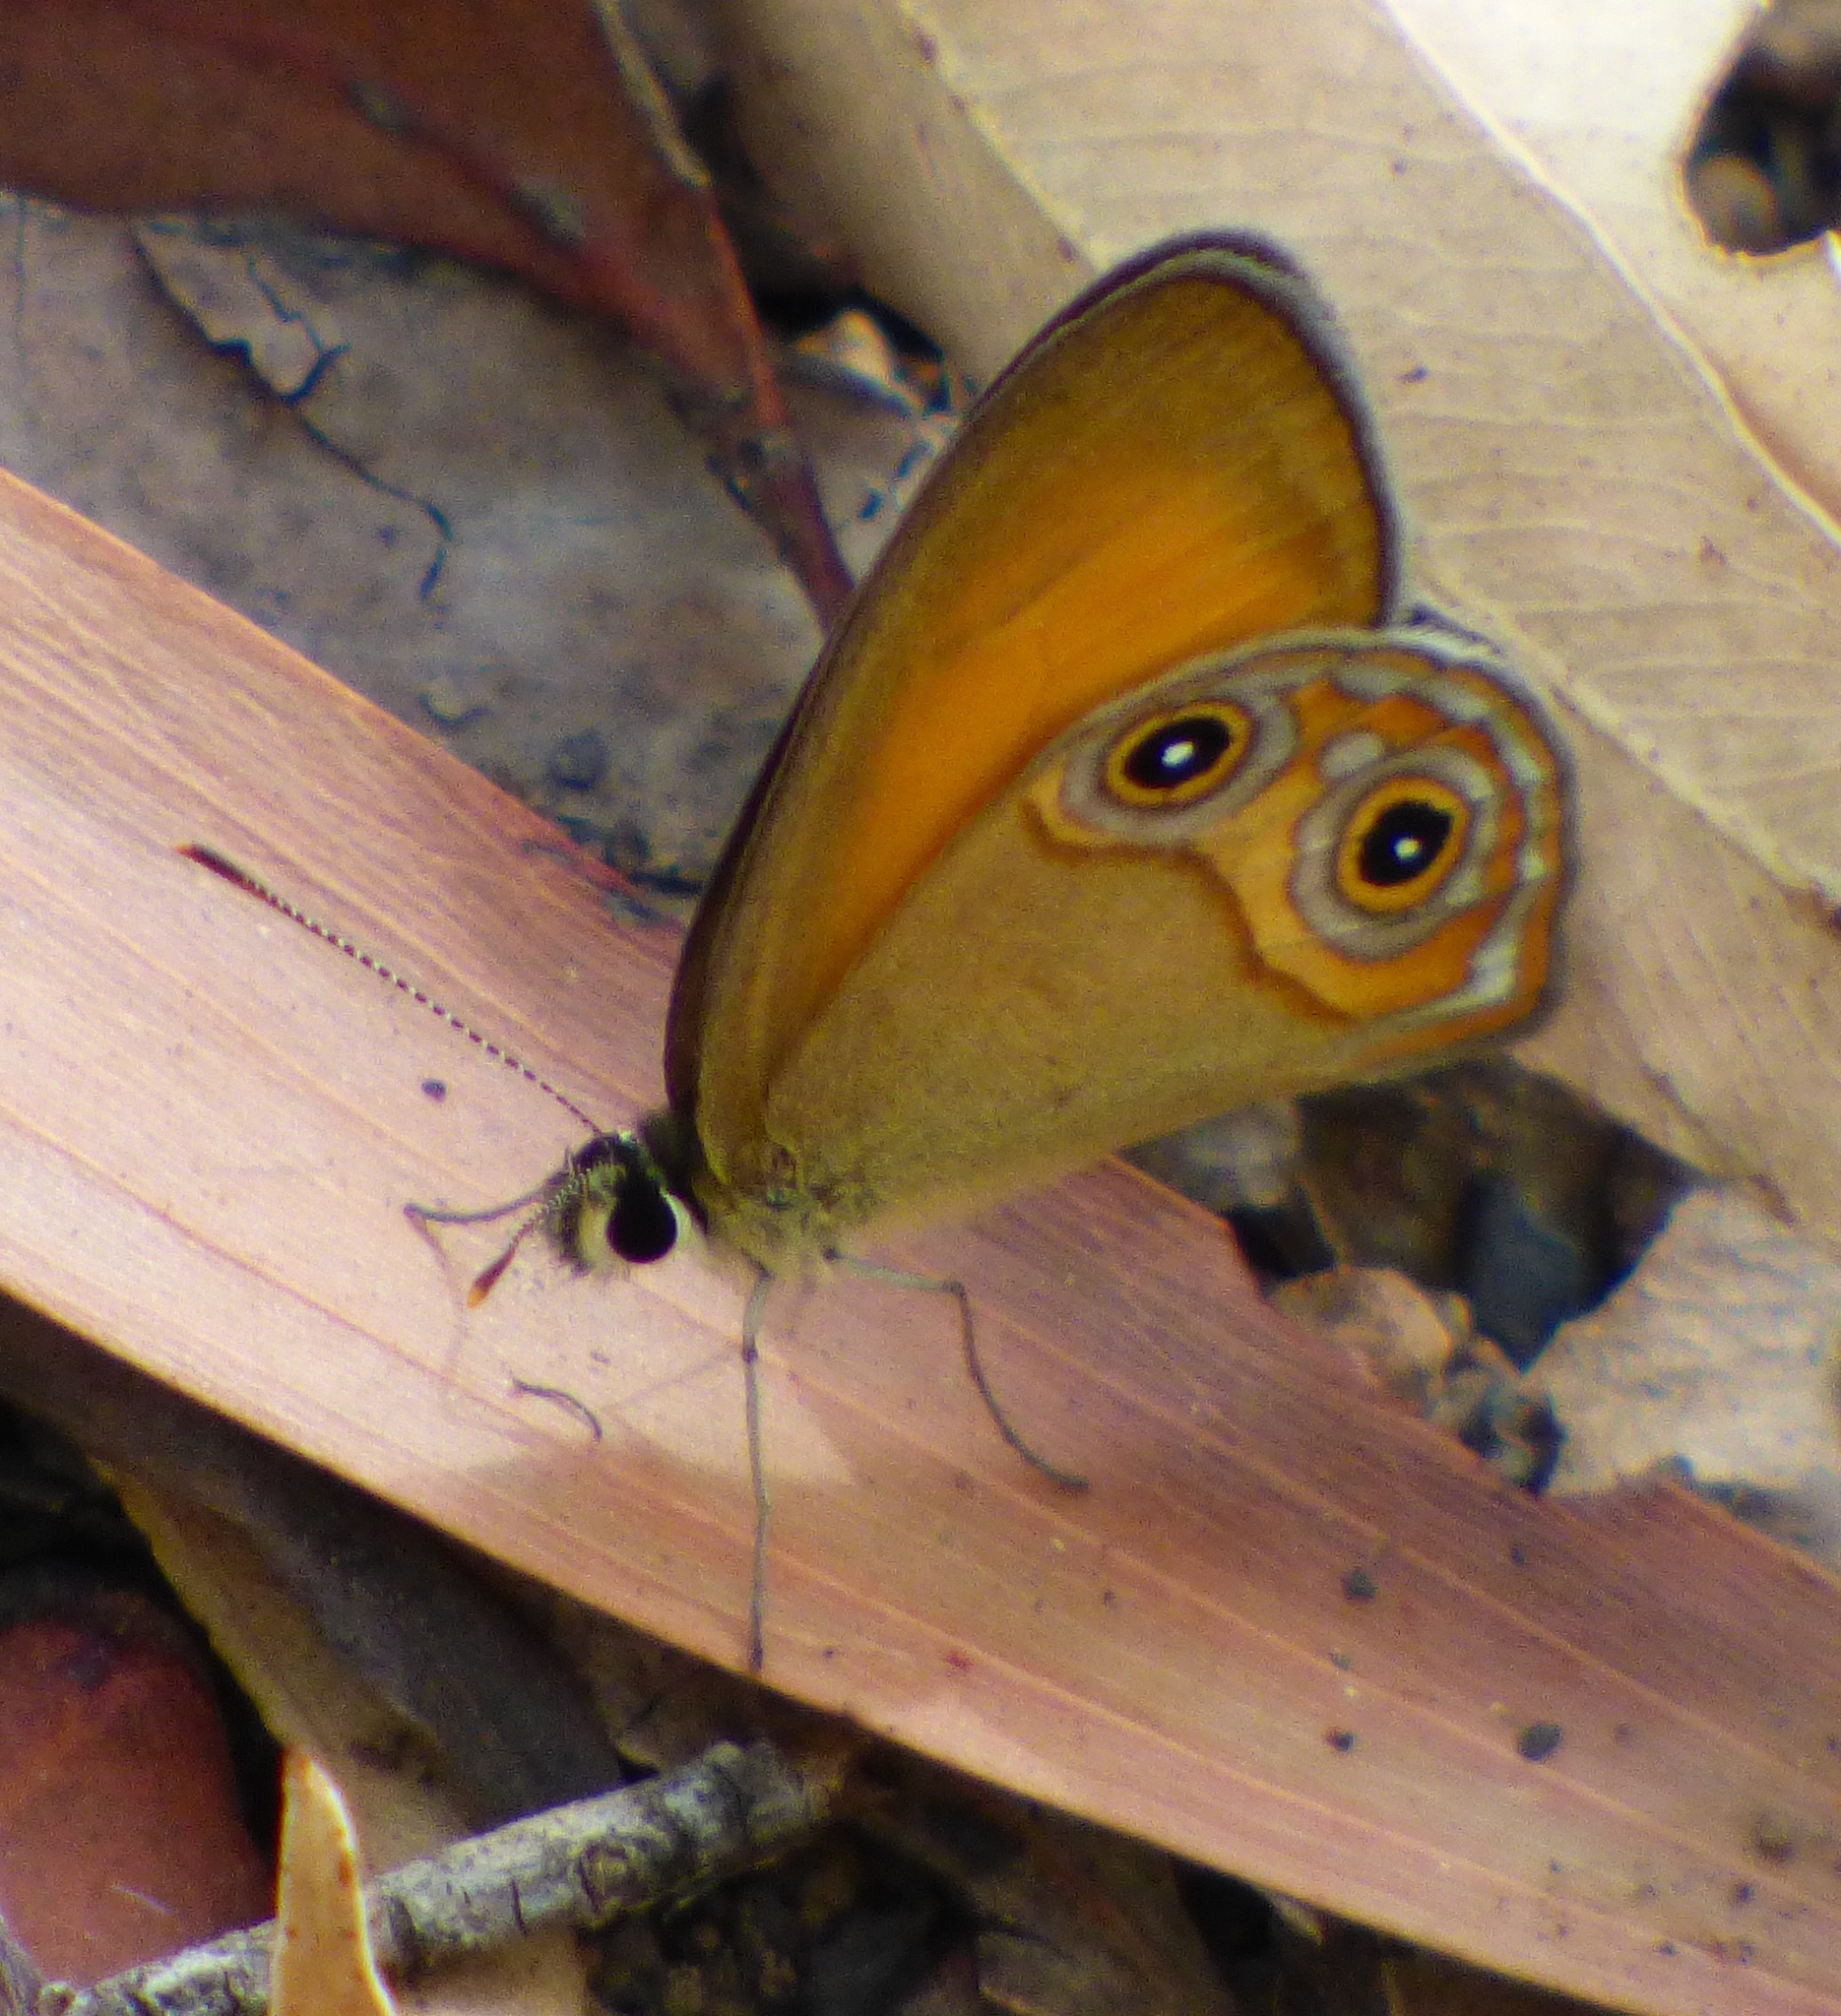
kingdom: Animalia
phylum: Arthropoda
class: Insecta
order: Lepidoptera
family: Nymphalidae
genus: Hypocysta
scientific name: Hypocysta adiante
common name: Orange ringlet
